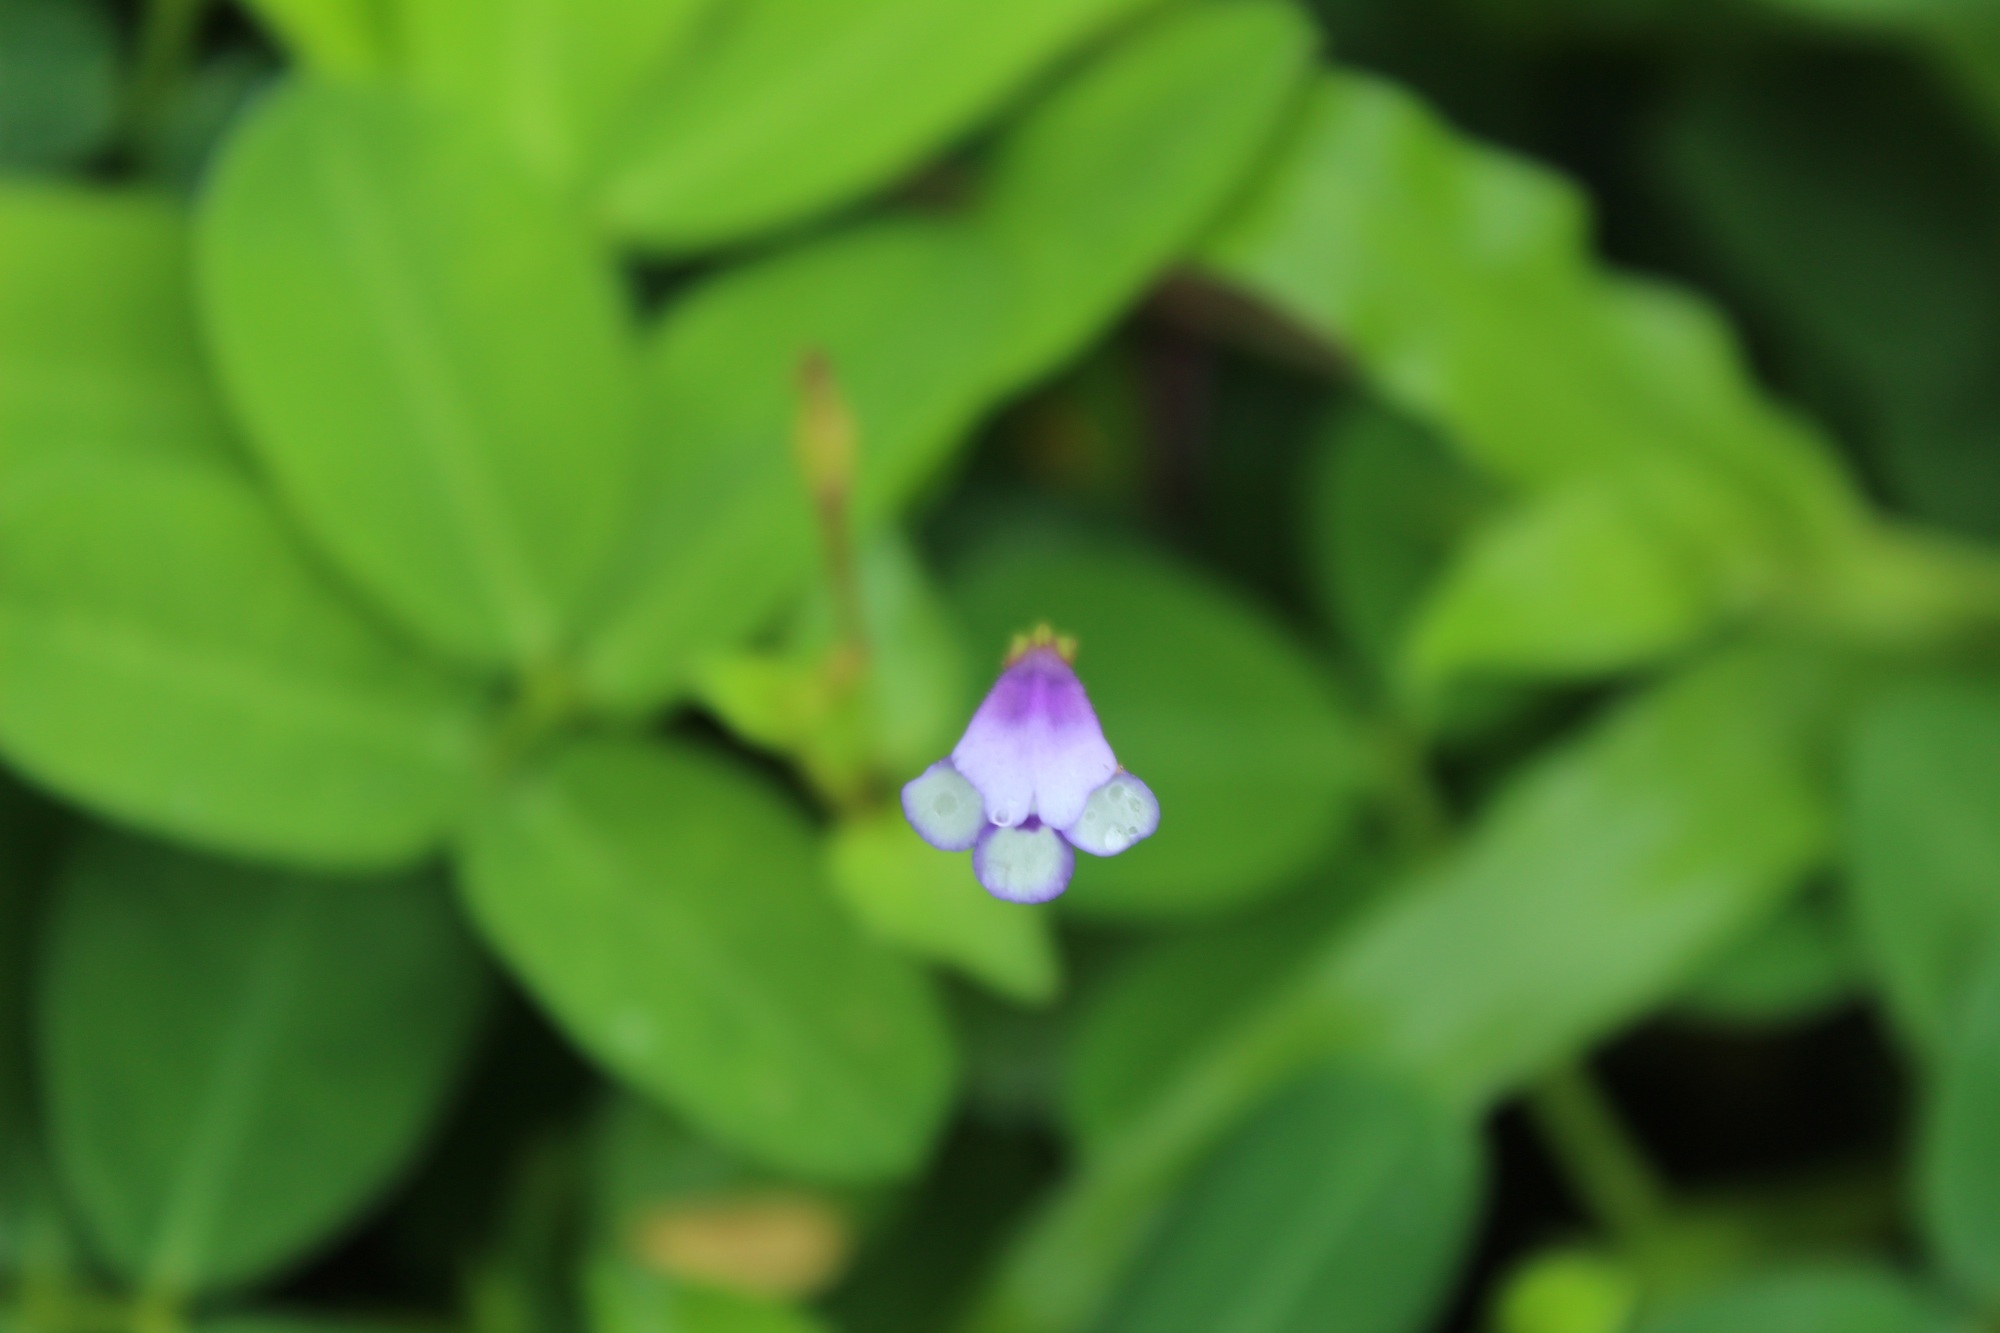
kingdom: Plantae
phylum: Tracheophyta
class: Magnoliopsida
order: Lamiales
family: Linderniaceae
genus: Torenia
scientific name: Torenia crustacea
